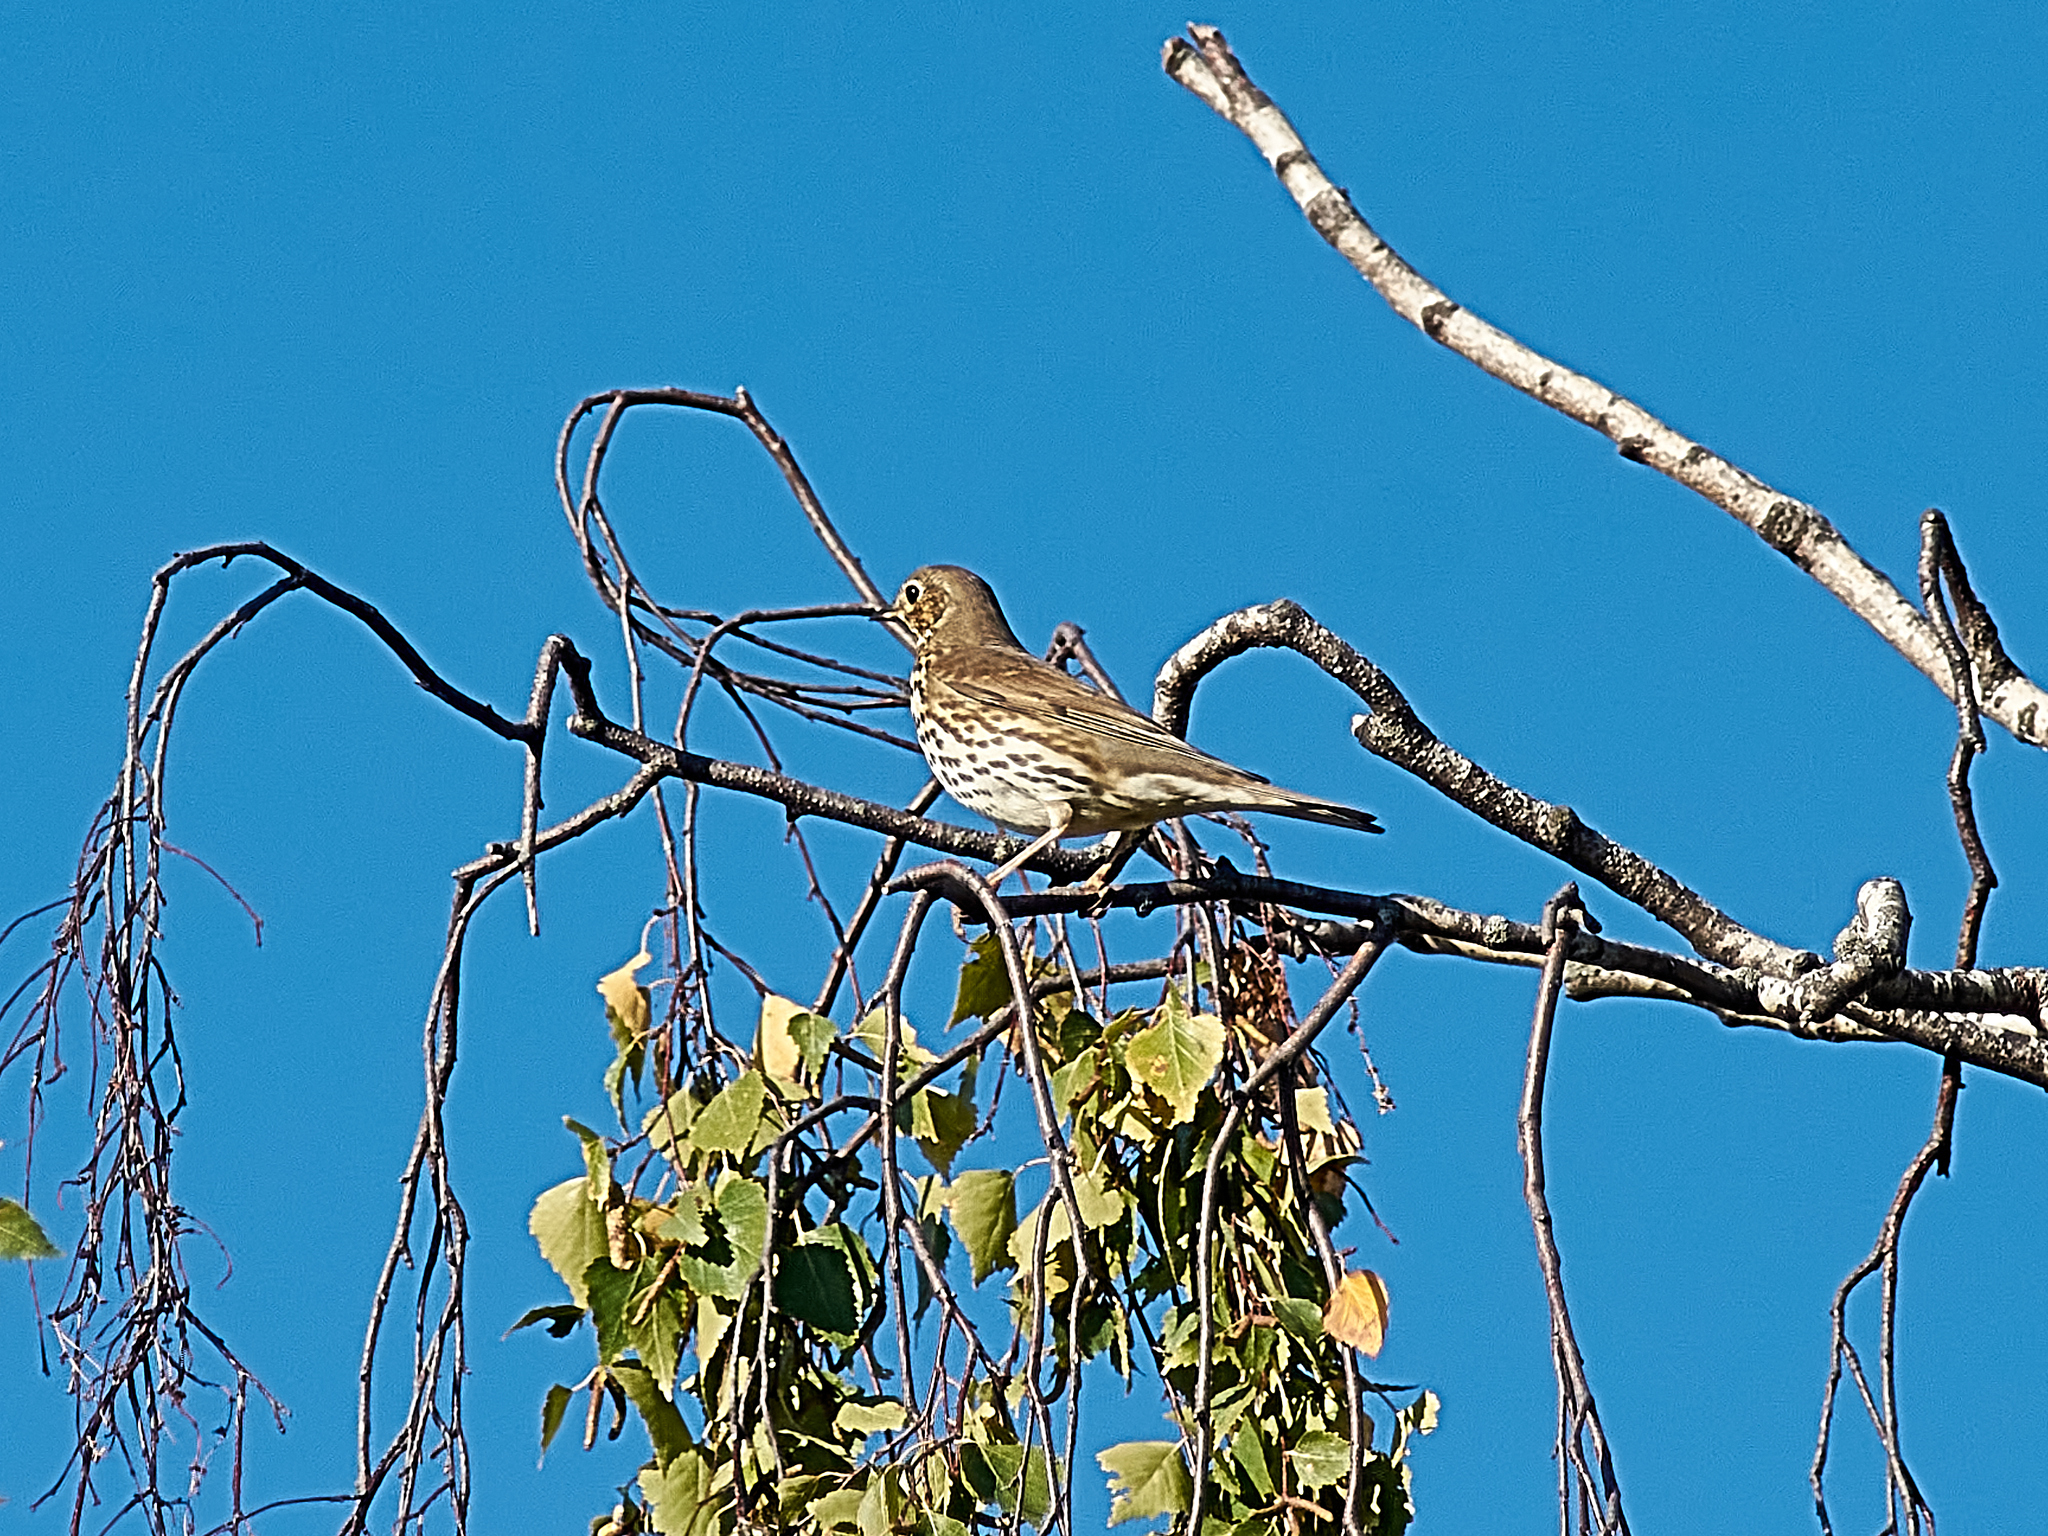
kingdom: Animalia
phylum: Chordata
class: Aves
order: Passeriformes
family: Turdidae
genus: Turdus
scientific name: Turdus philomelos
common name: Song thrush
